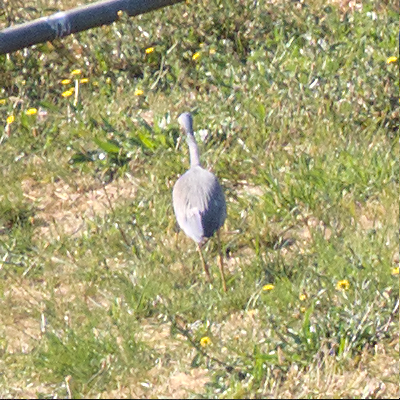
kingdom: Animalia
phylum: Chordata
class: Aves
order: Pelecaniformes
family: Ardeidae
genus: Egretta
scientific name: Egretta novaehollandiae
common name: White-faced heron
